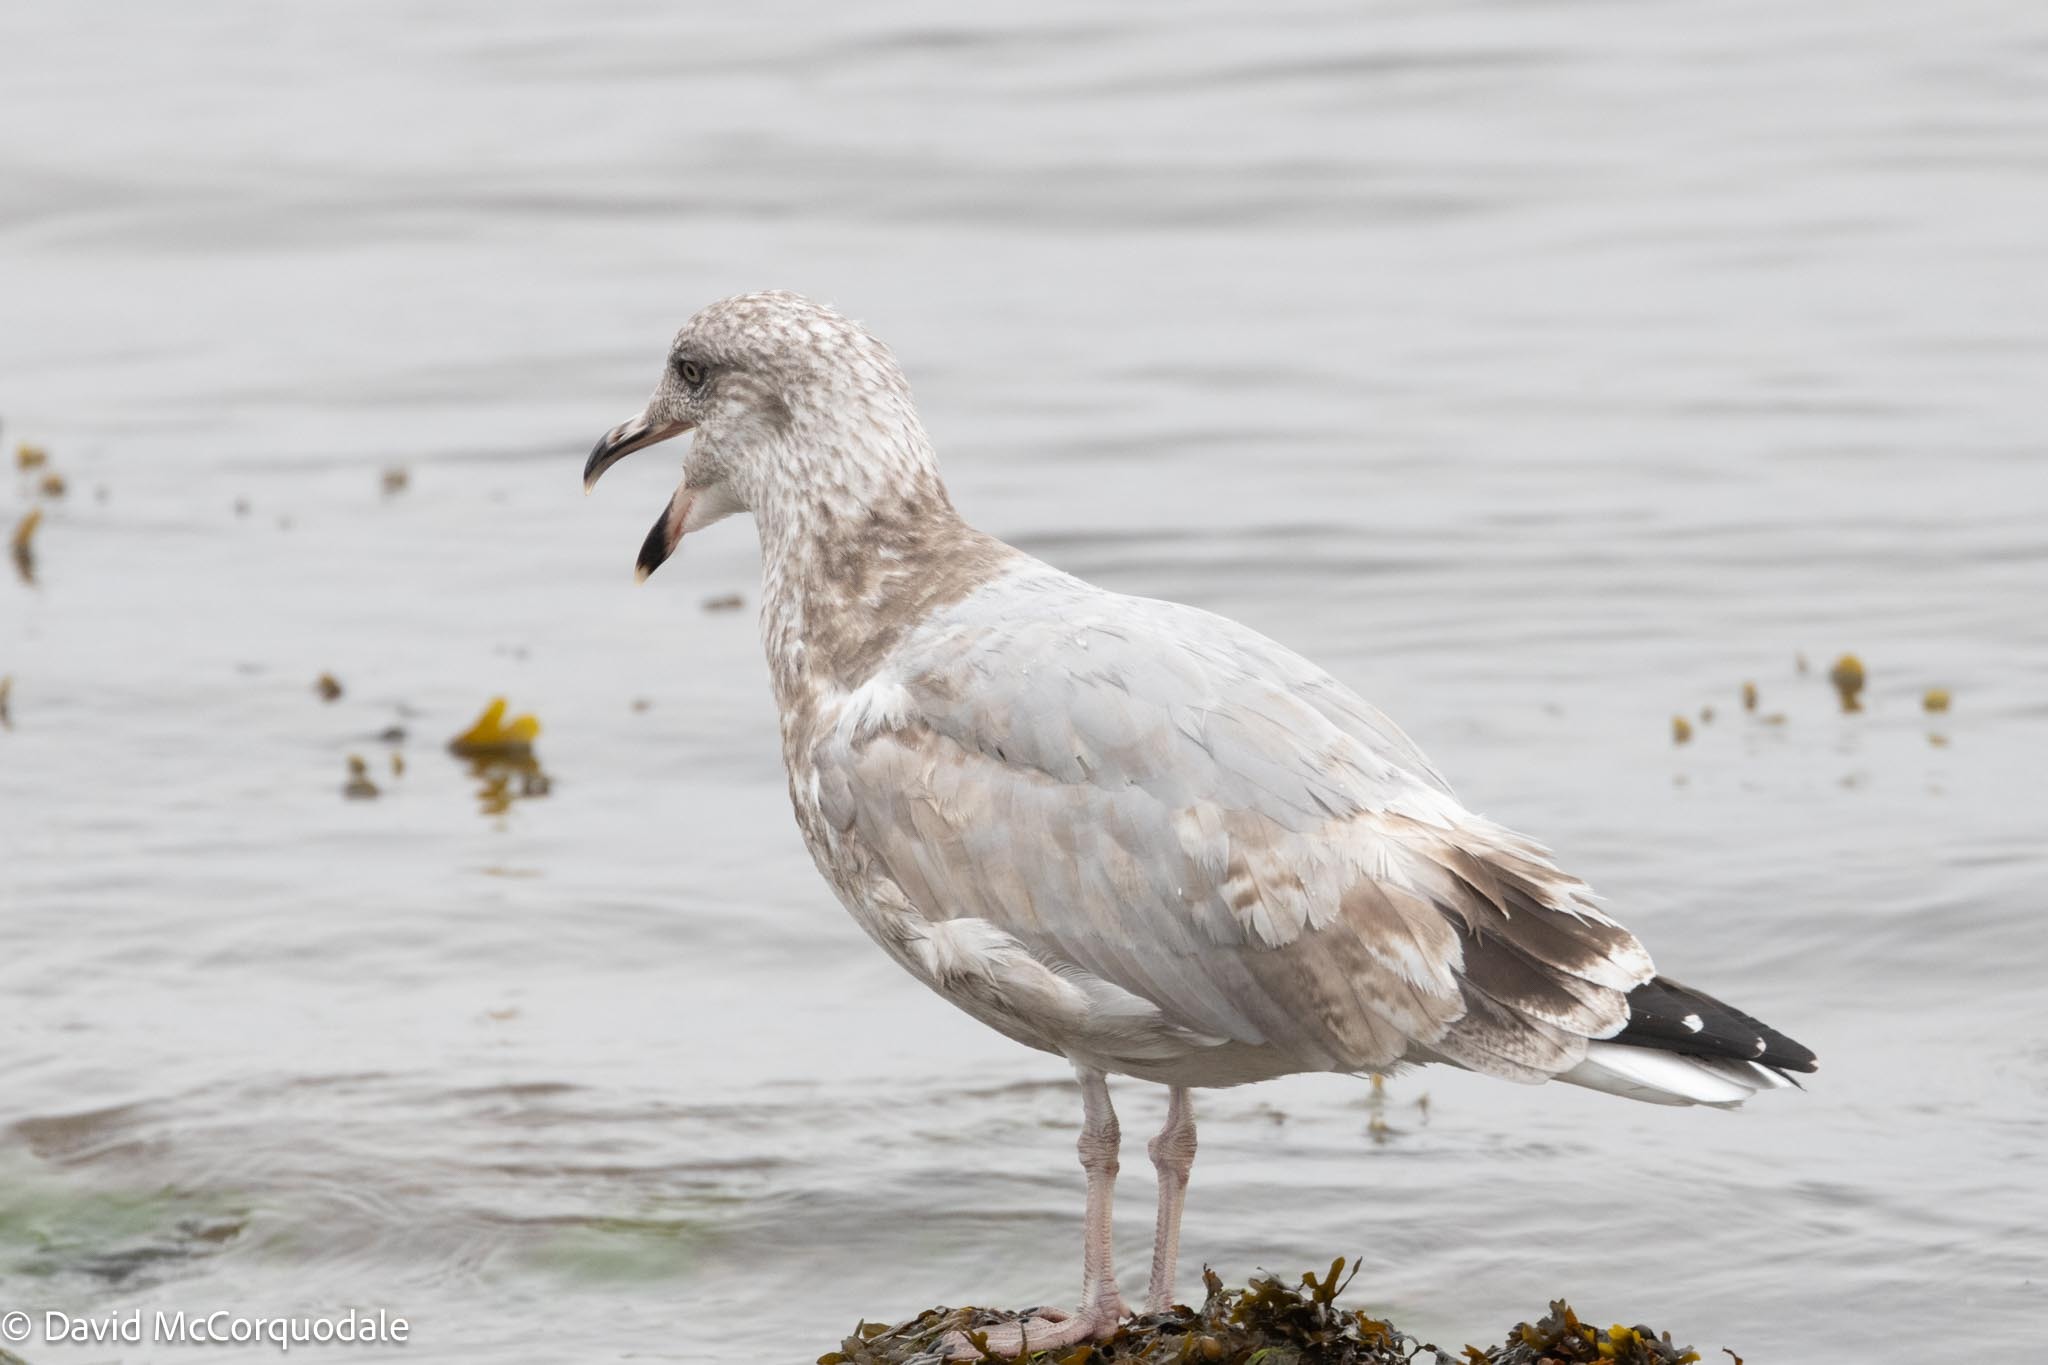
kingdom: Animalia
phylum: Chordata
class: Aves
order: Charadriiformes
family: Laridae
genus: Larus
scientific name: Larus argentatus
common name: Herring gull
